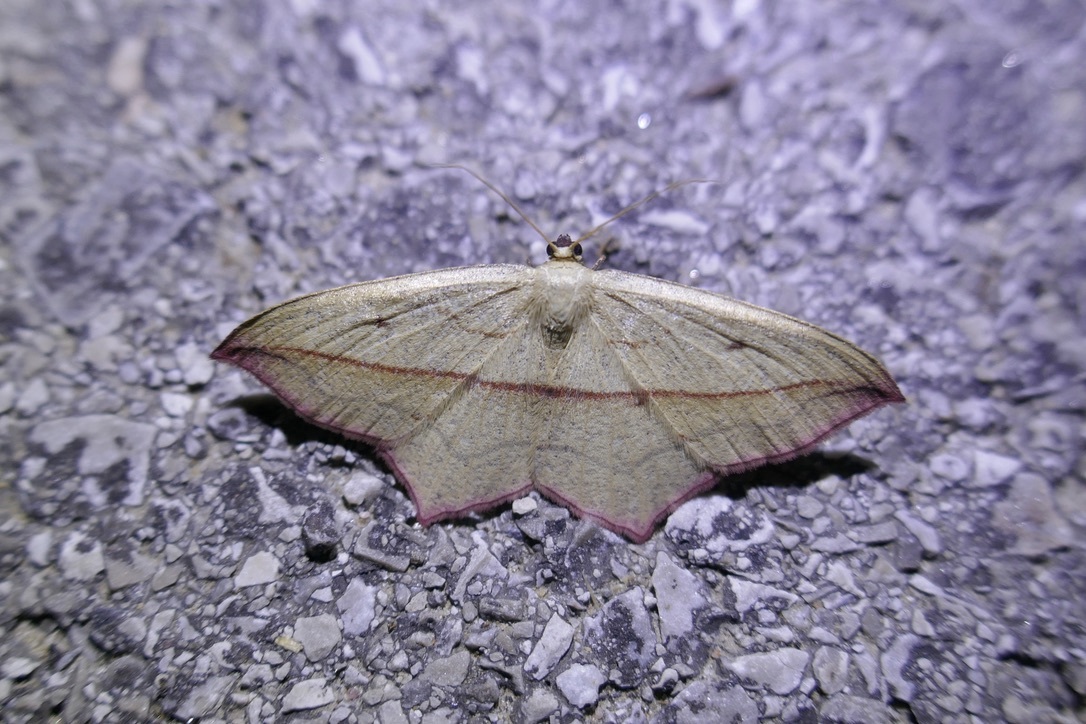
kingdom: Animalia
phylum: Arthropoda
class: Insecta
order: Lepidoptera
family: Geometridae
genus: Timandra
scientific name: Timandra comae
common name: Blood-vein
